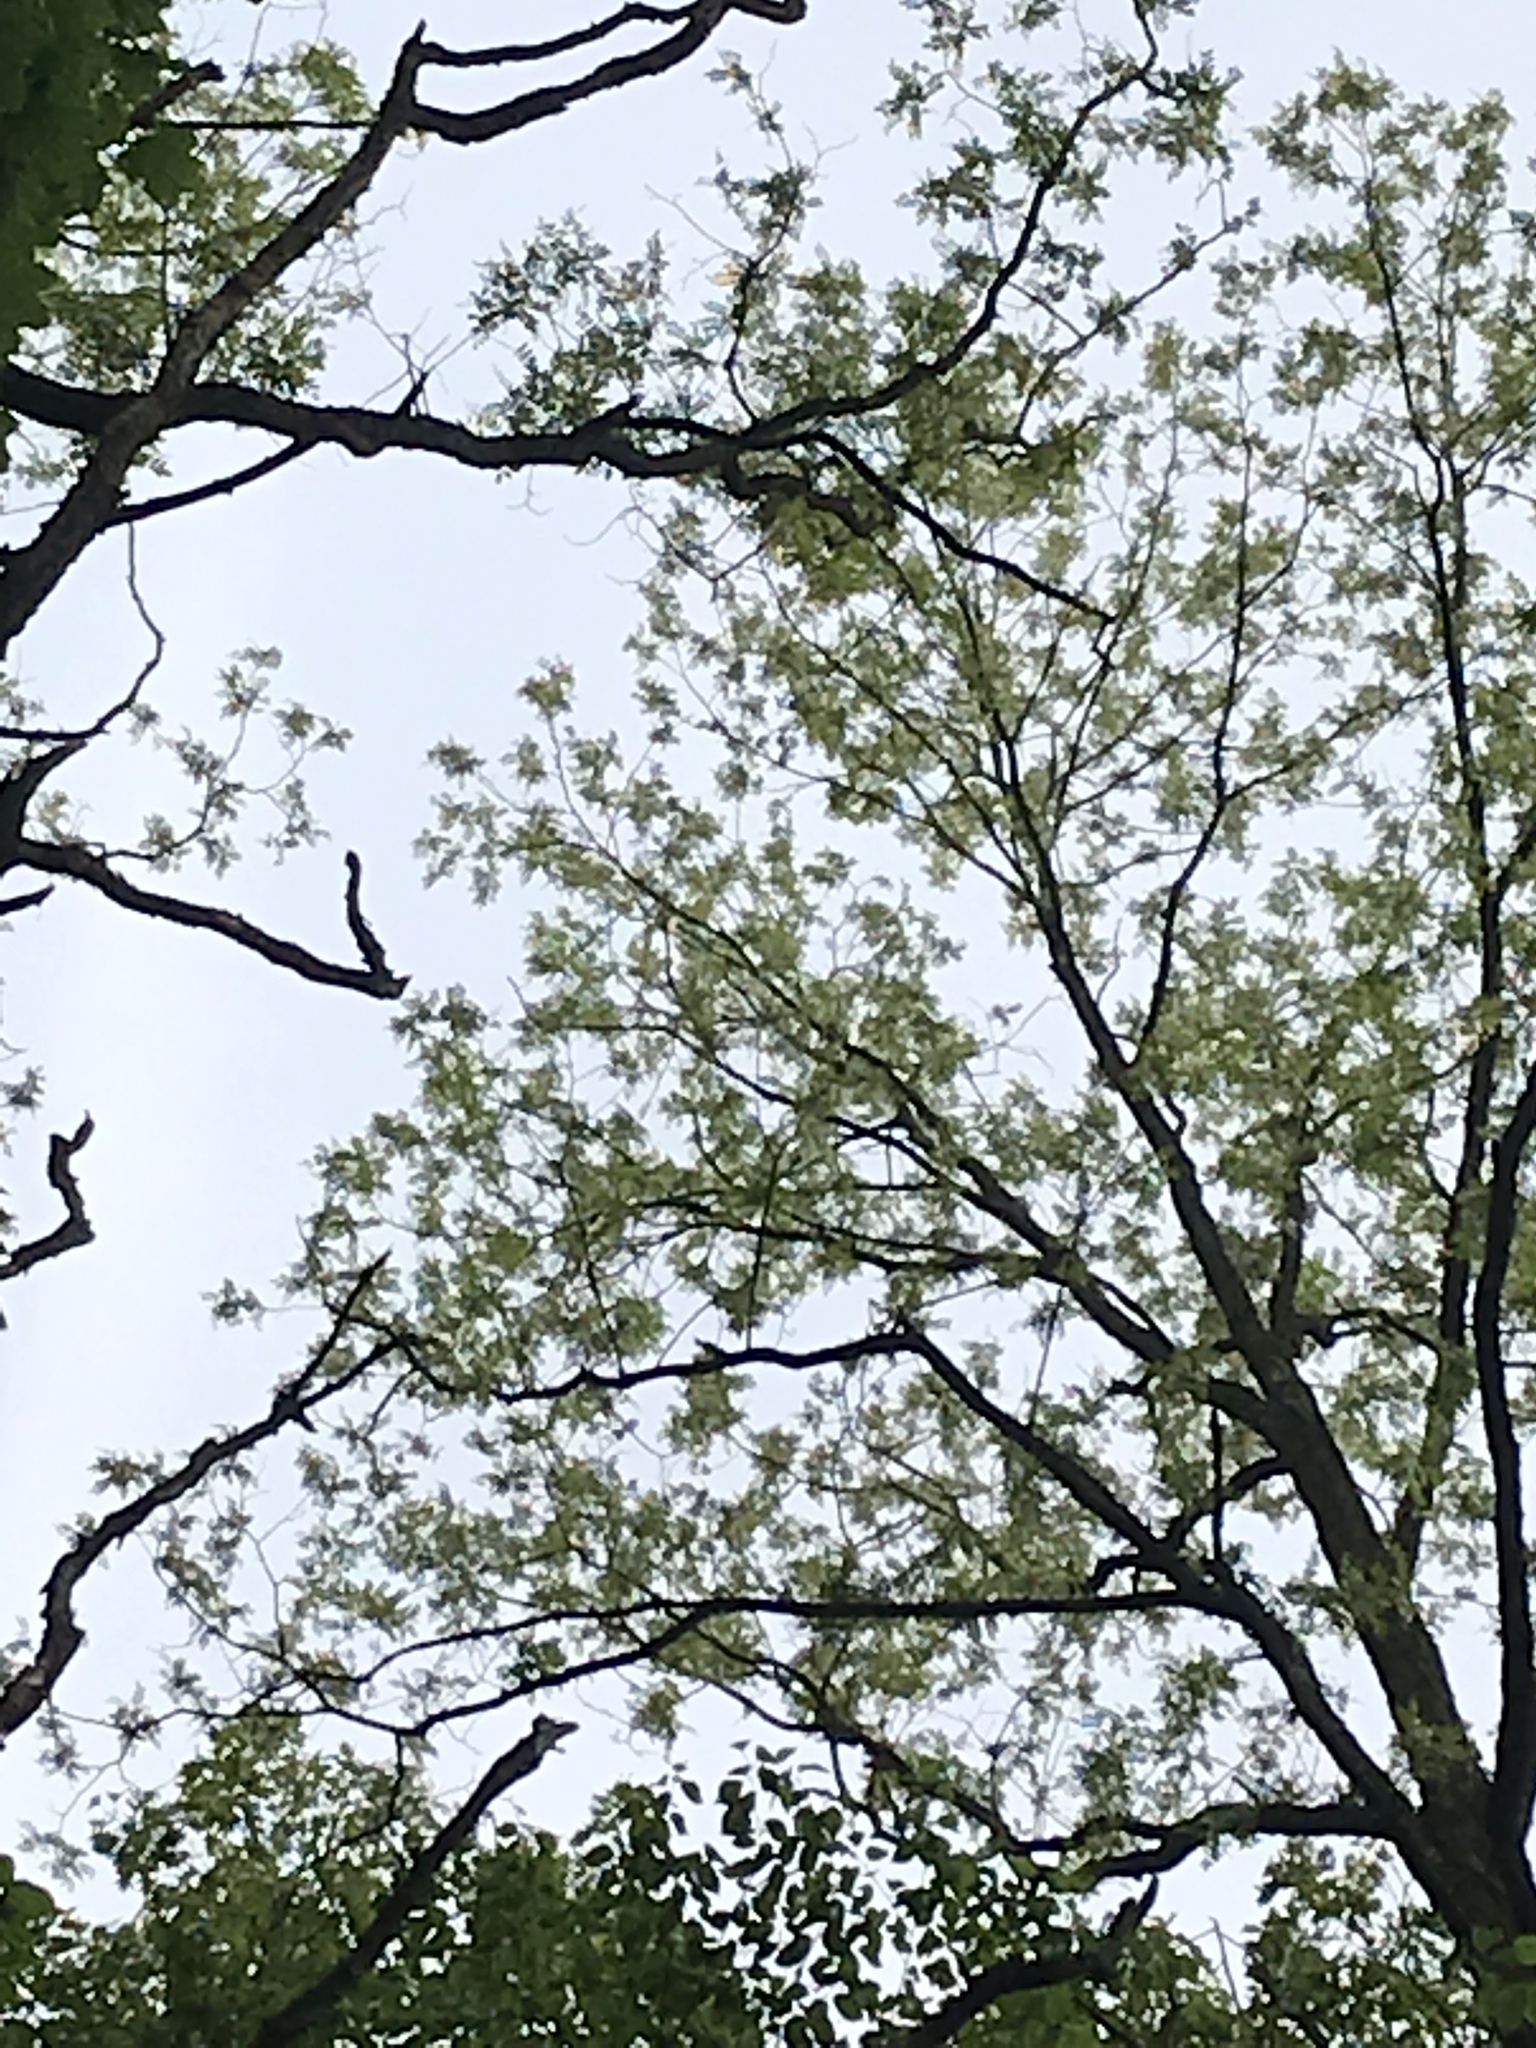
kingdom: Plantae
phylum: Tracheophyta
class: Magnoliopsida
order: Fabales
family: Fabaceae
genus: Robinia
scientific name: Robinia pseudoacacia
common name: Black locust
